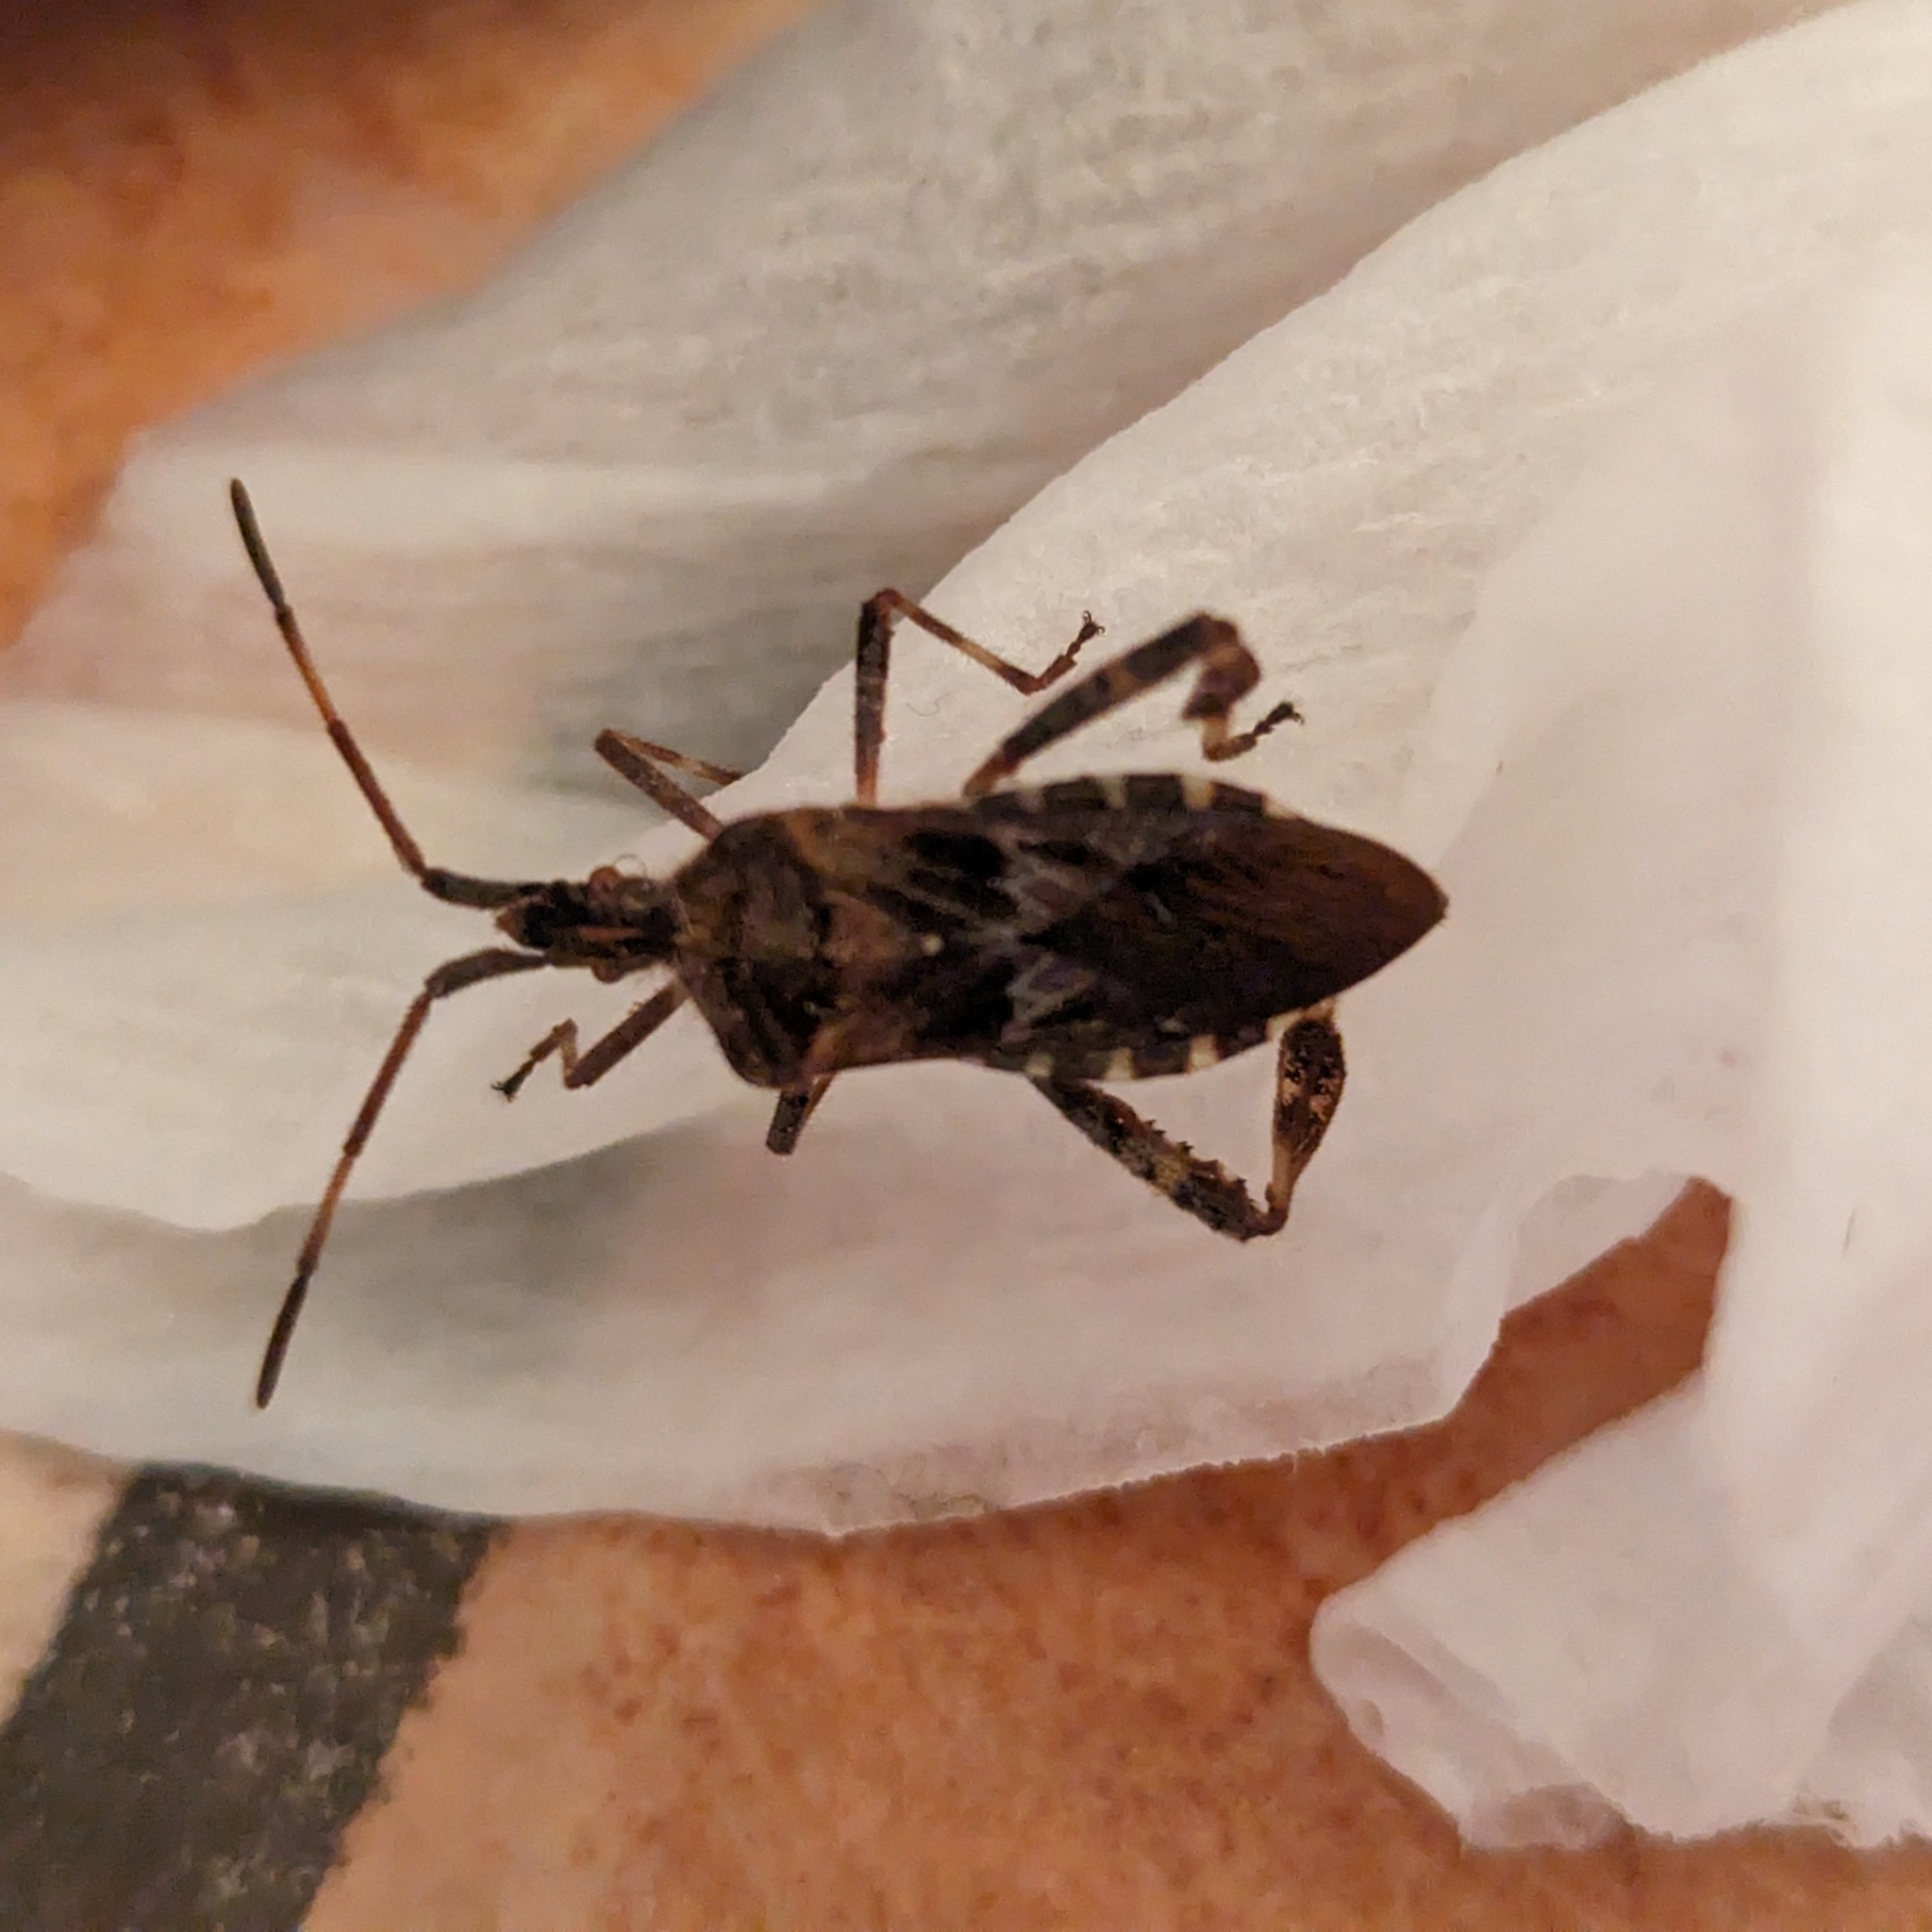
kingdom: Animalia
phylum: Arthropoda
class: Insecta
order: Hemiptera
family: Coreidae
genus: Leptoglossus
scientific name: Leptoglossus occidentalis
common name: Western conifer-seed bug
